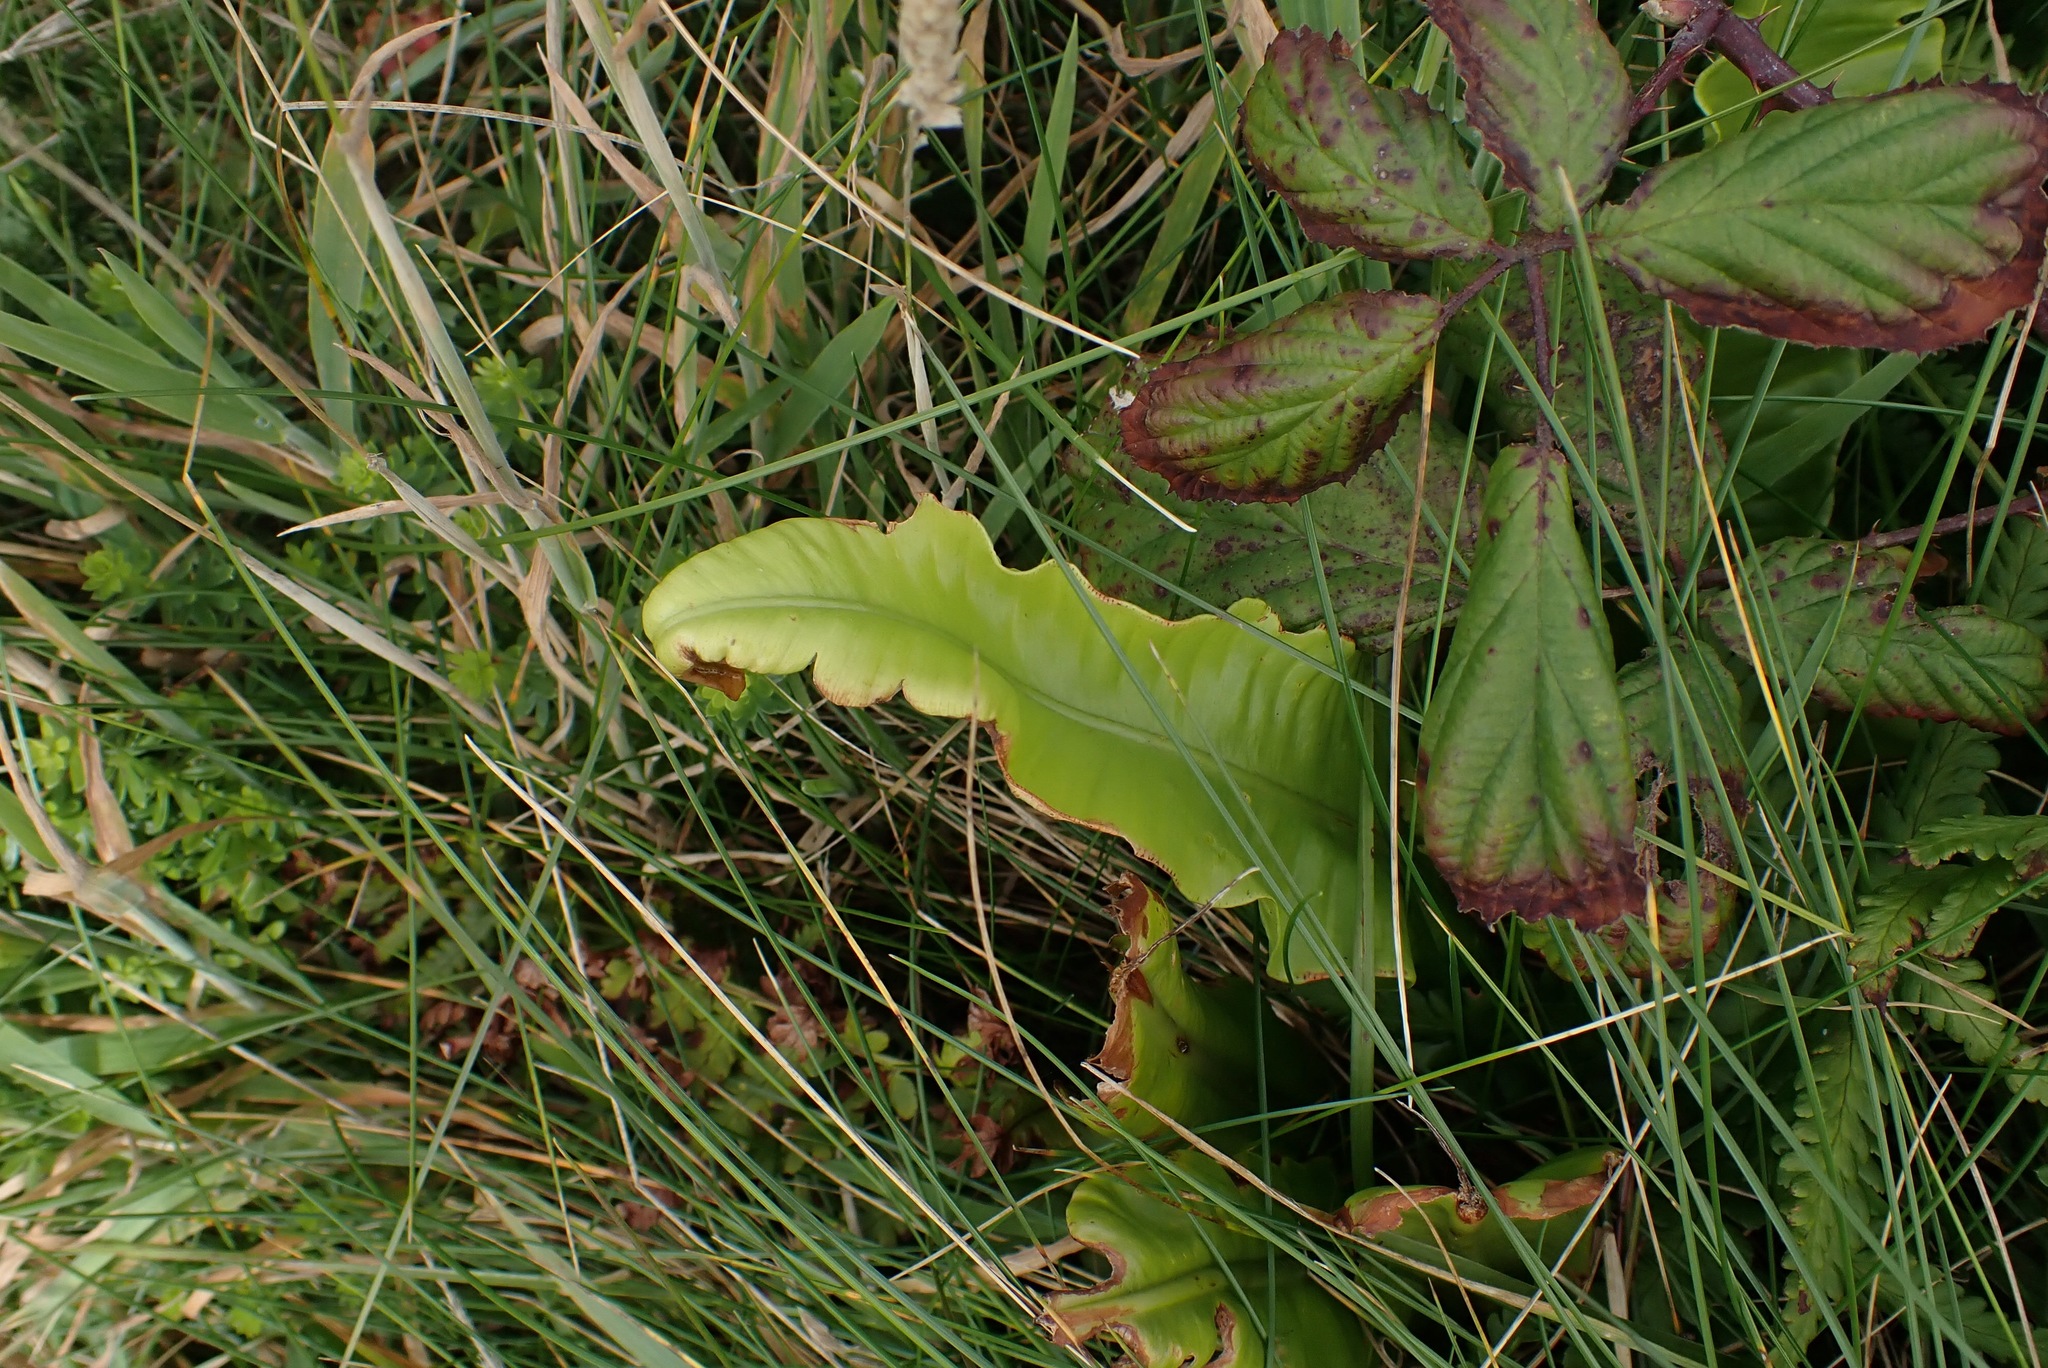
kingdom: Plantae
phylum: Tracheophyta
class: Polypodiopsida
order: Polypodiales
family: Aspleniaceae
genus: Asplenium
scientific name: Asplenium scolopendrium
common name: Hart's-tongue fern
